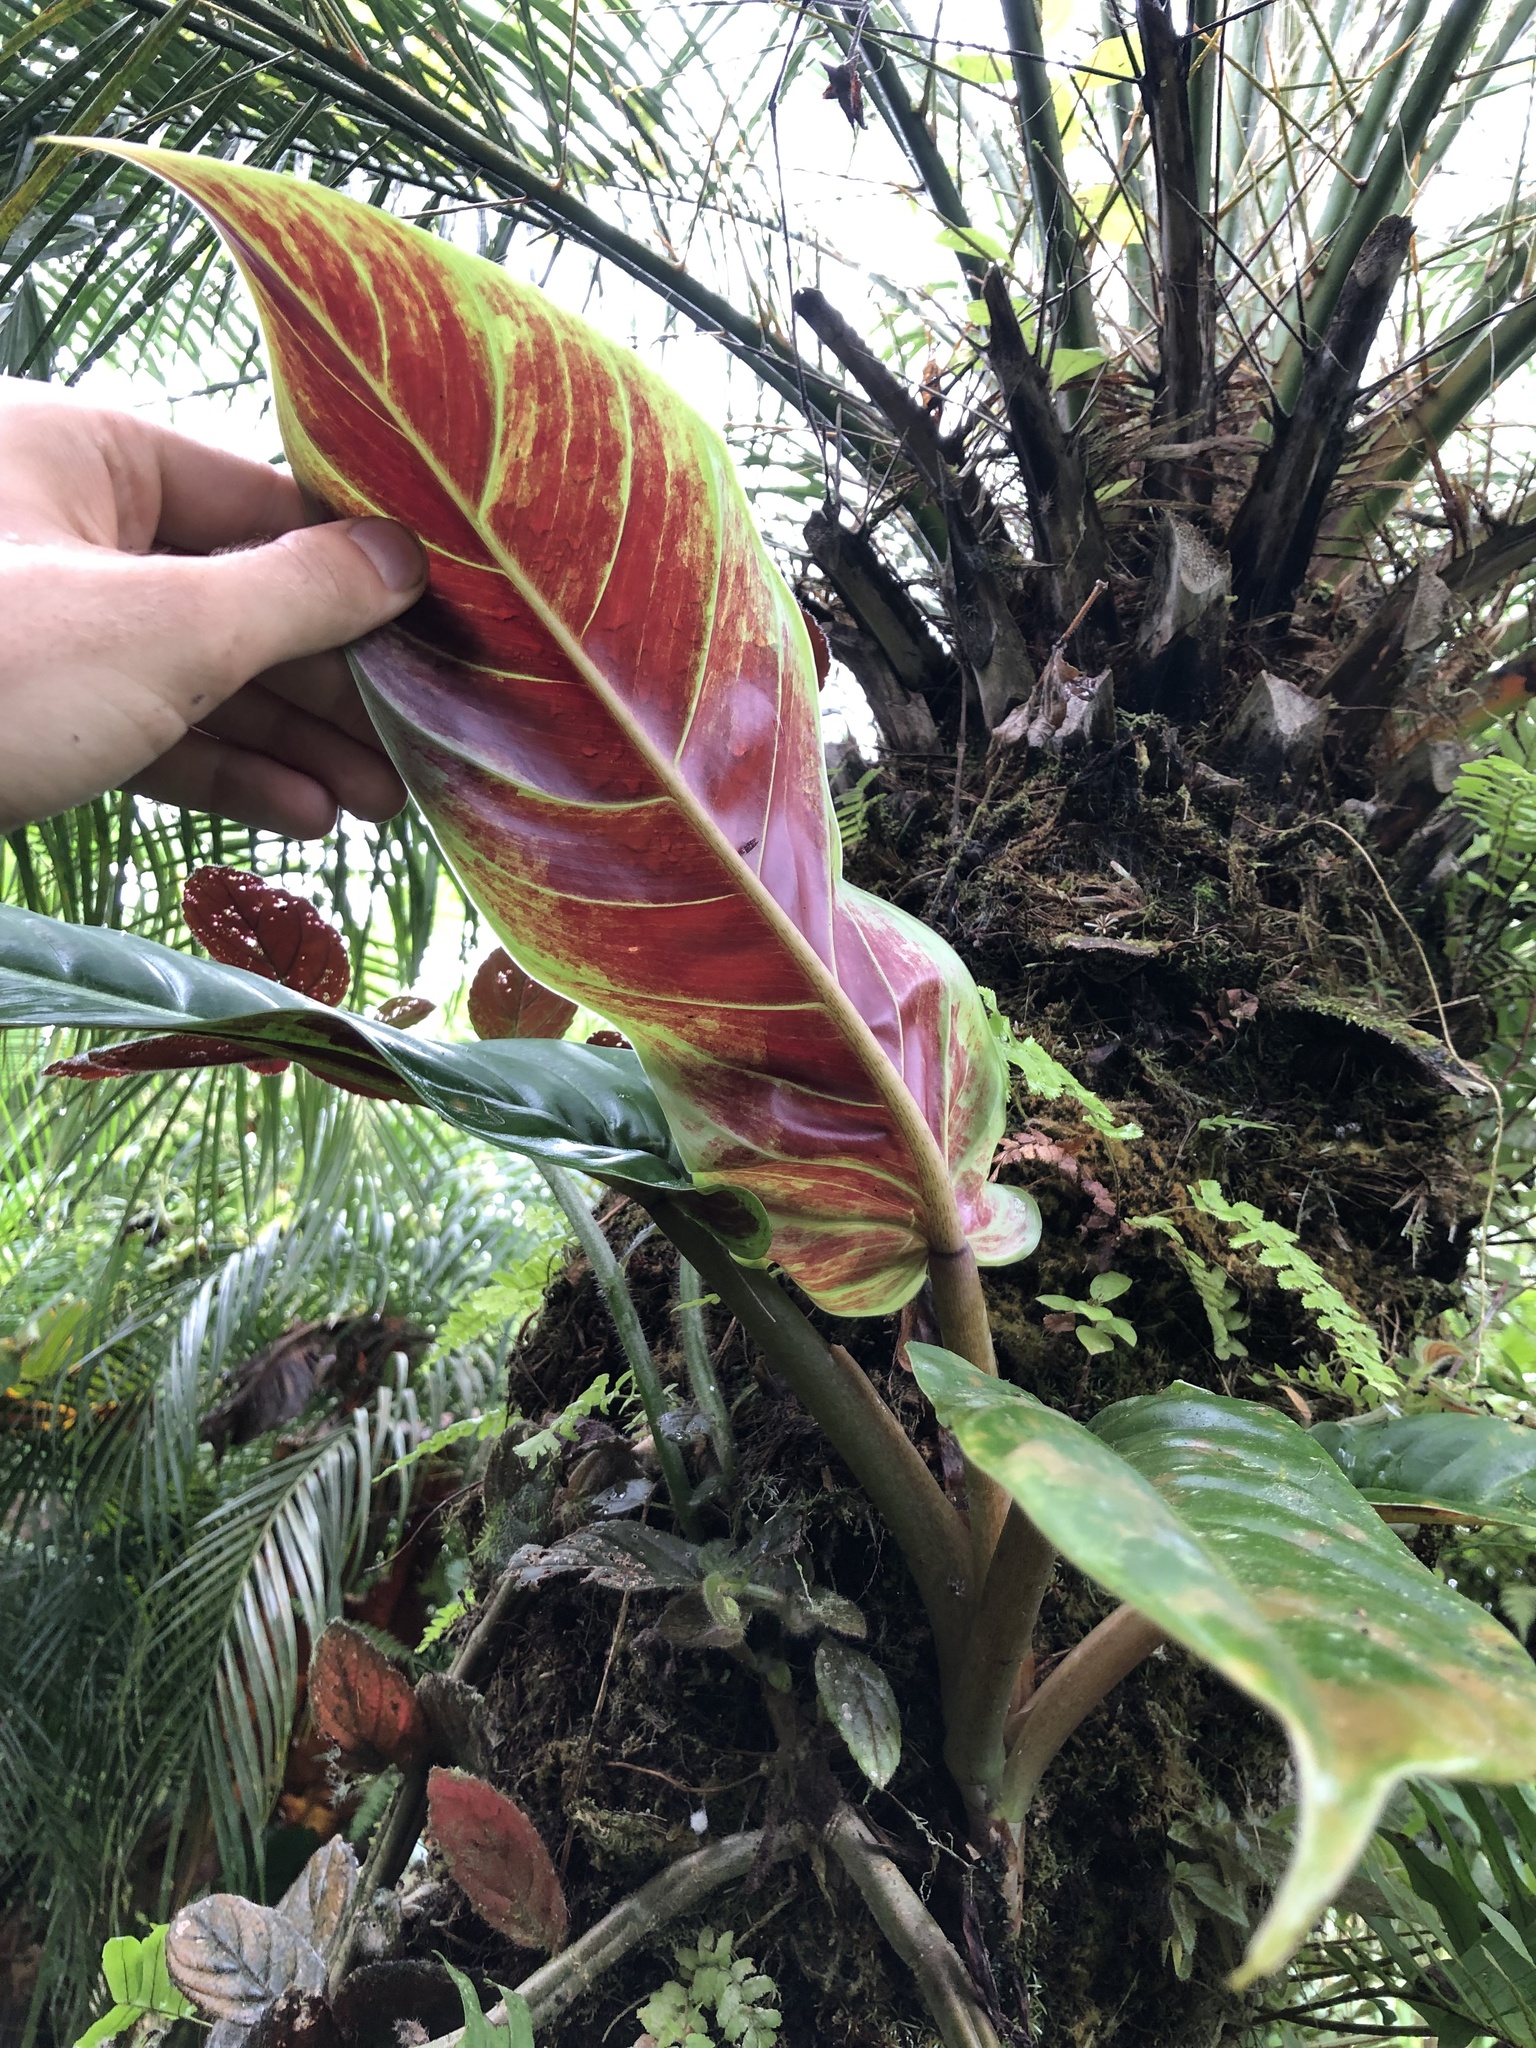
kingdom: Plantae
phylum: Tracheophyta
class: Liliopsida
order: Alismatales
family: Araceae
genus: Philodendron
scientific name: Philodendron subhastatum
